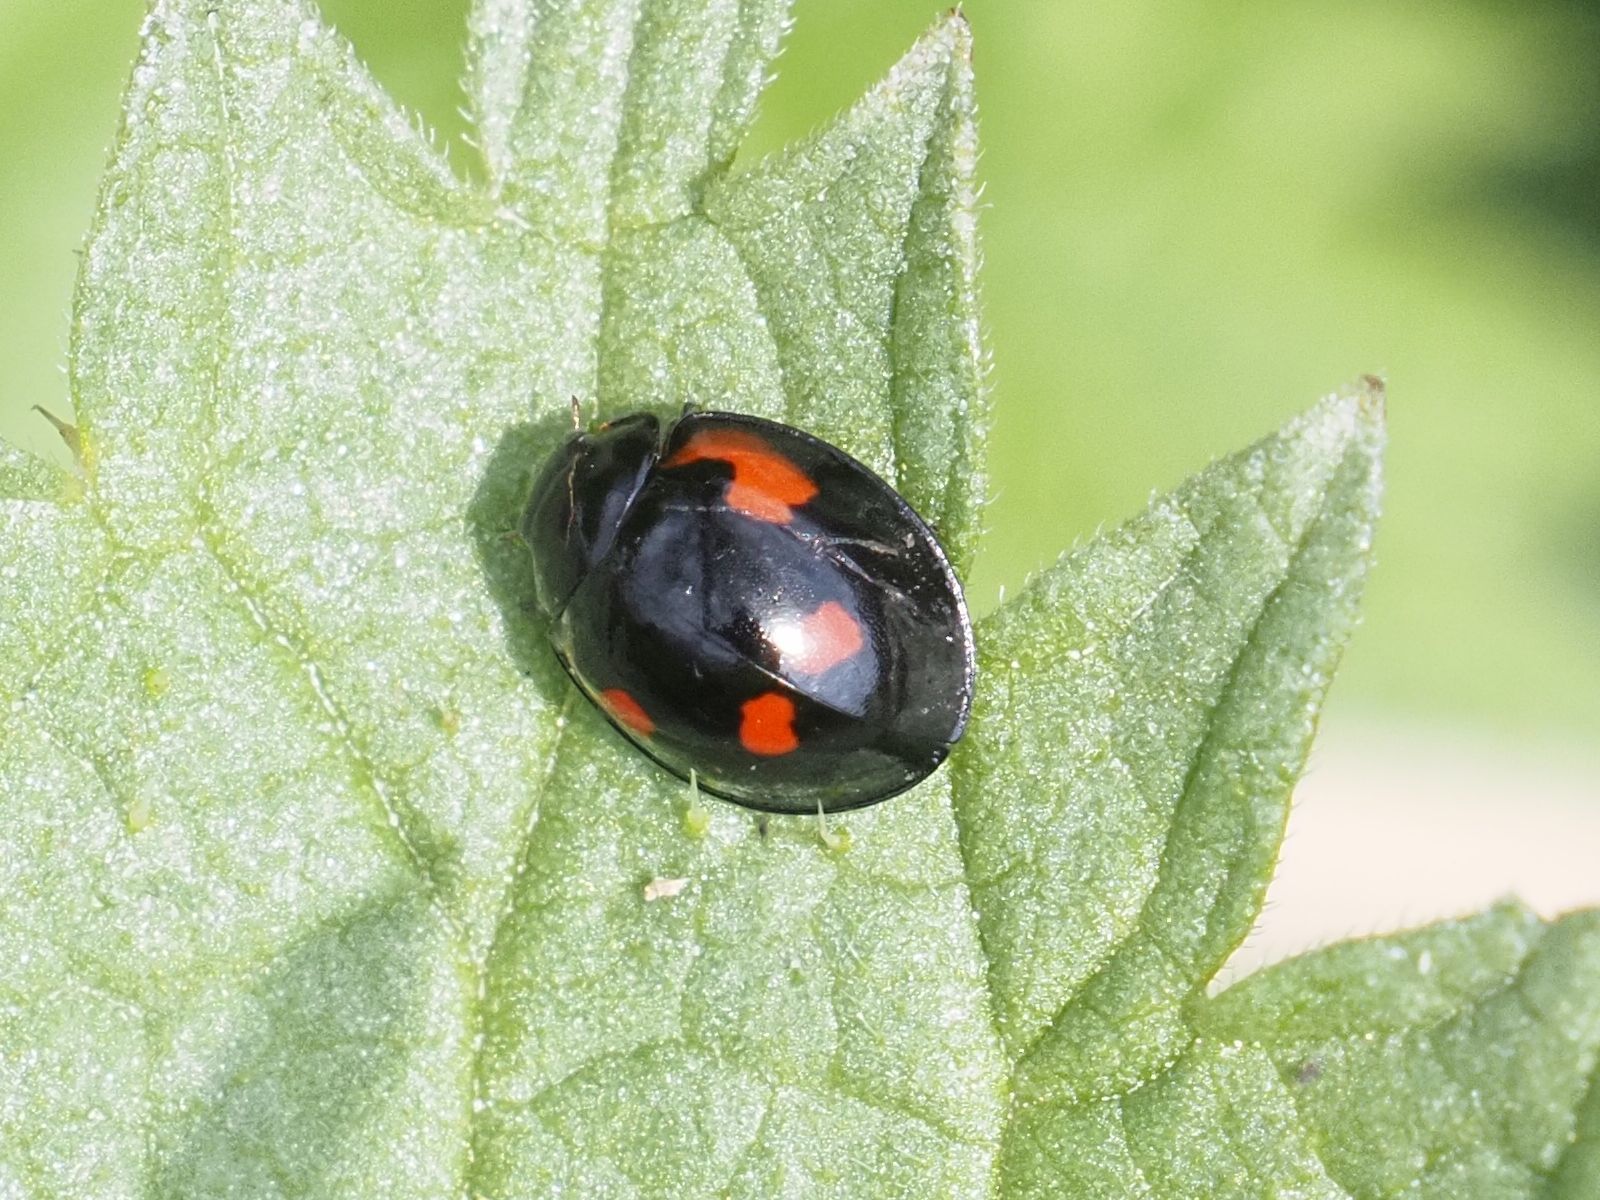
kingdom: Animalia
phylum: Arthropoda
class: Insecta
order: Coleoptera
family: Coccinellidae
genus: Brumus
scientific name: Brumus quadripustulatus
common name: Ladybird beetle
